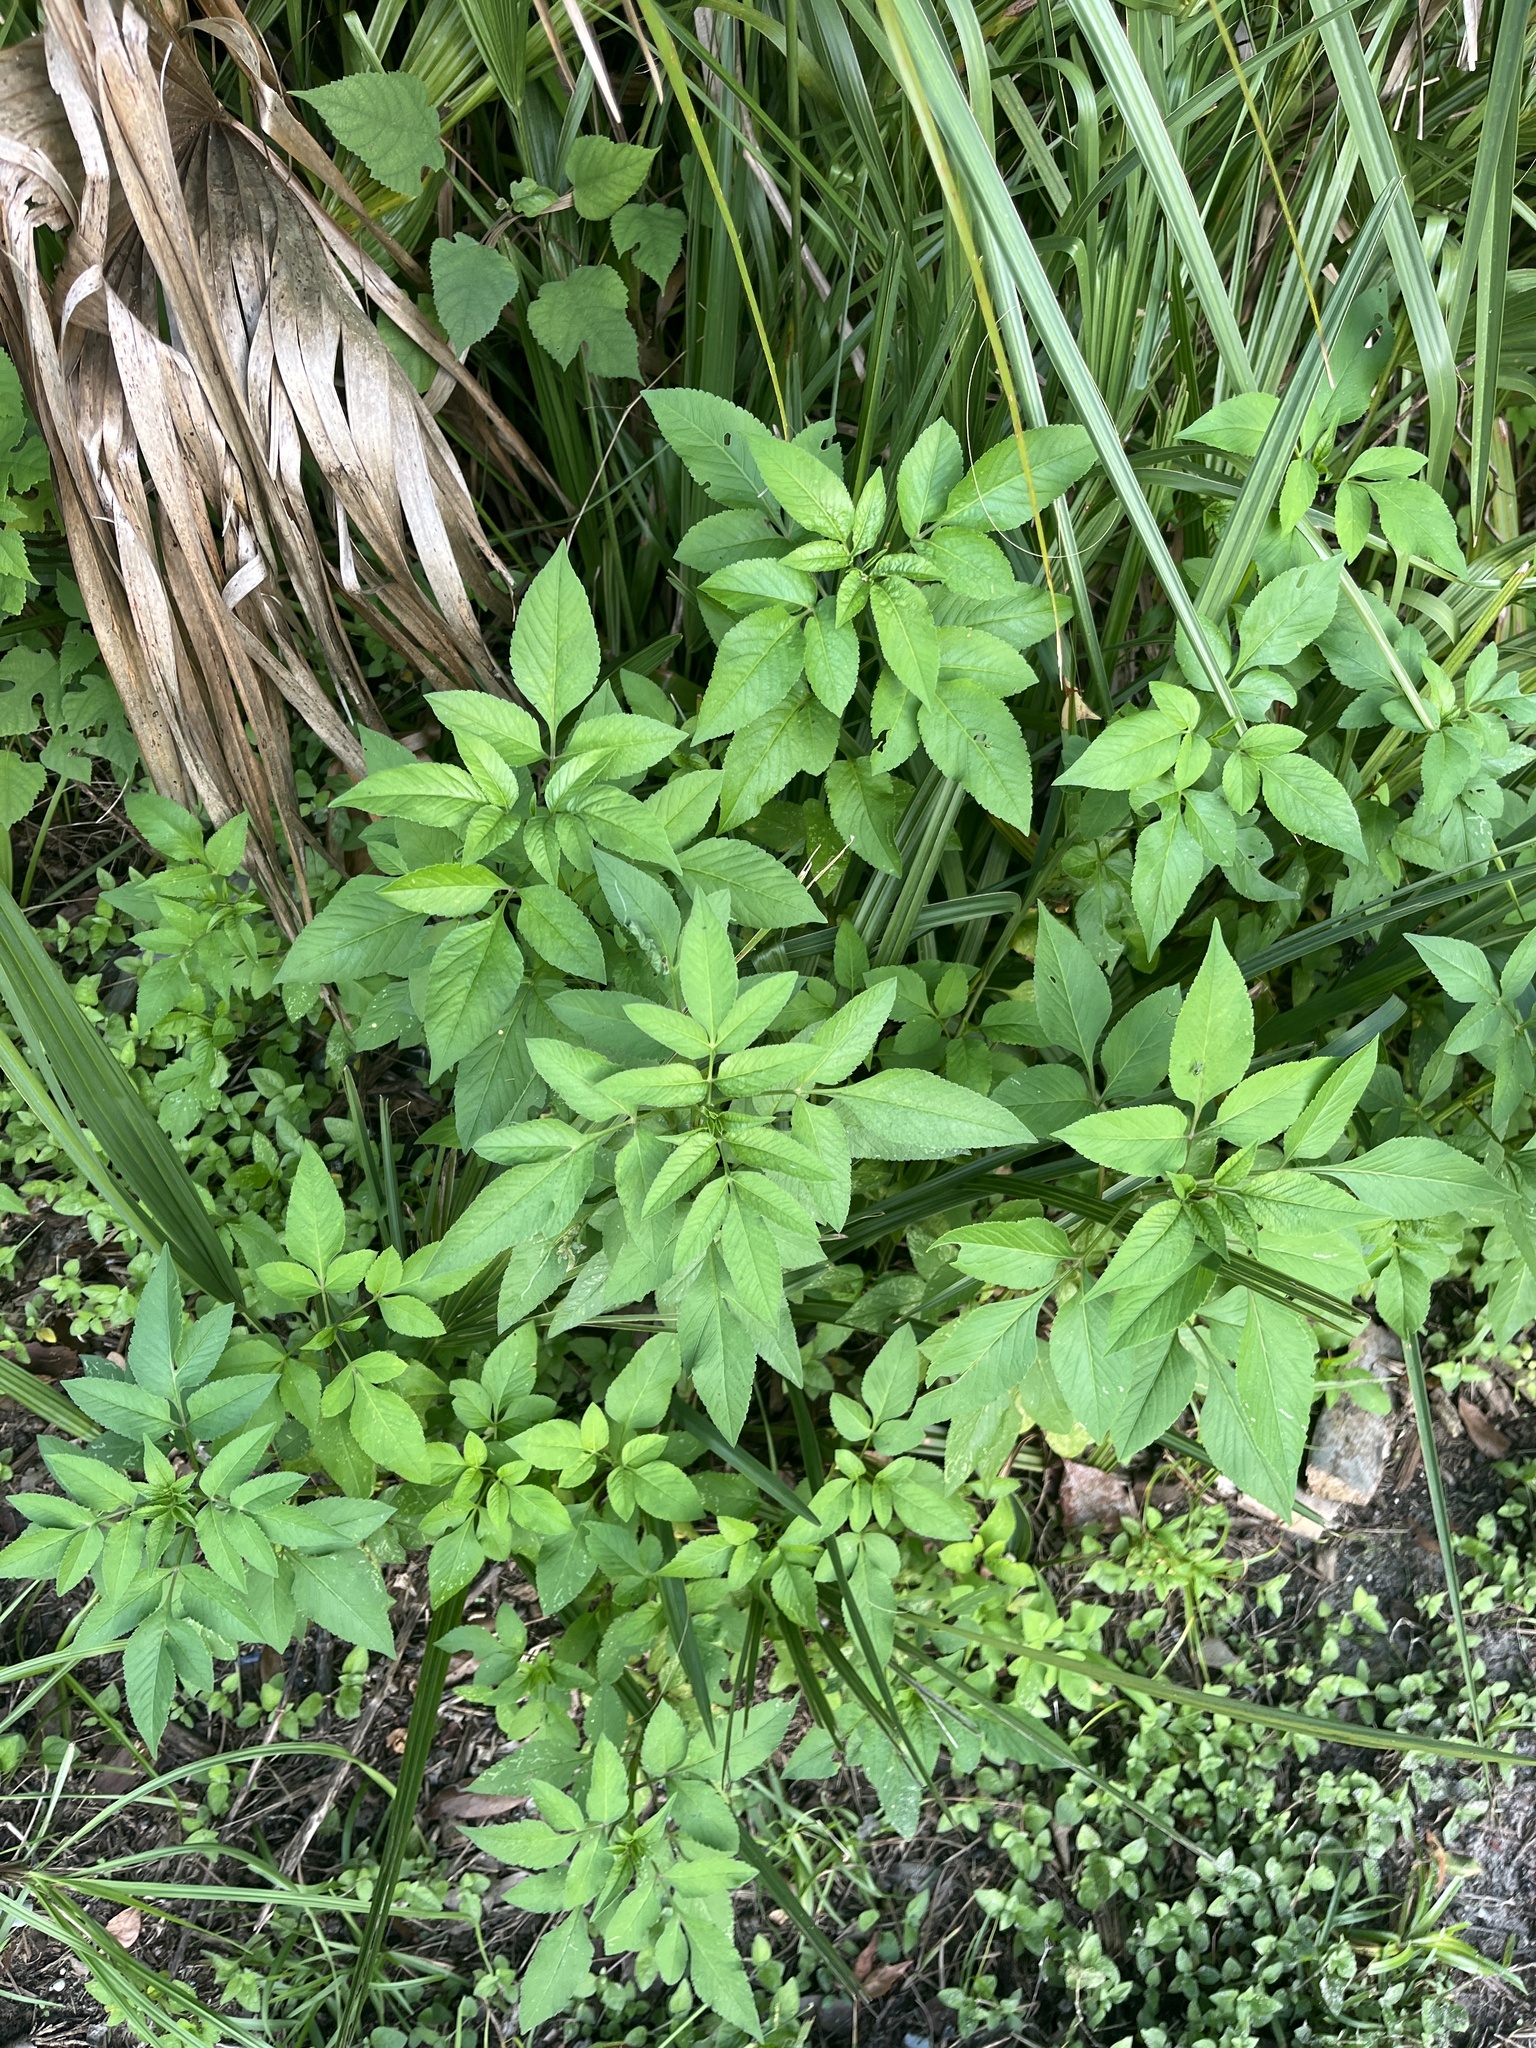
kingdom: Plantae
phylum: Tracheophyta
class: Magnoliopsida
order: Asterales
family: Asteraceae
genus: Bidens
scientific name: Bidens alba
